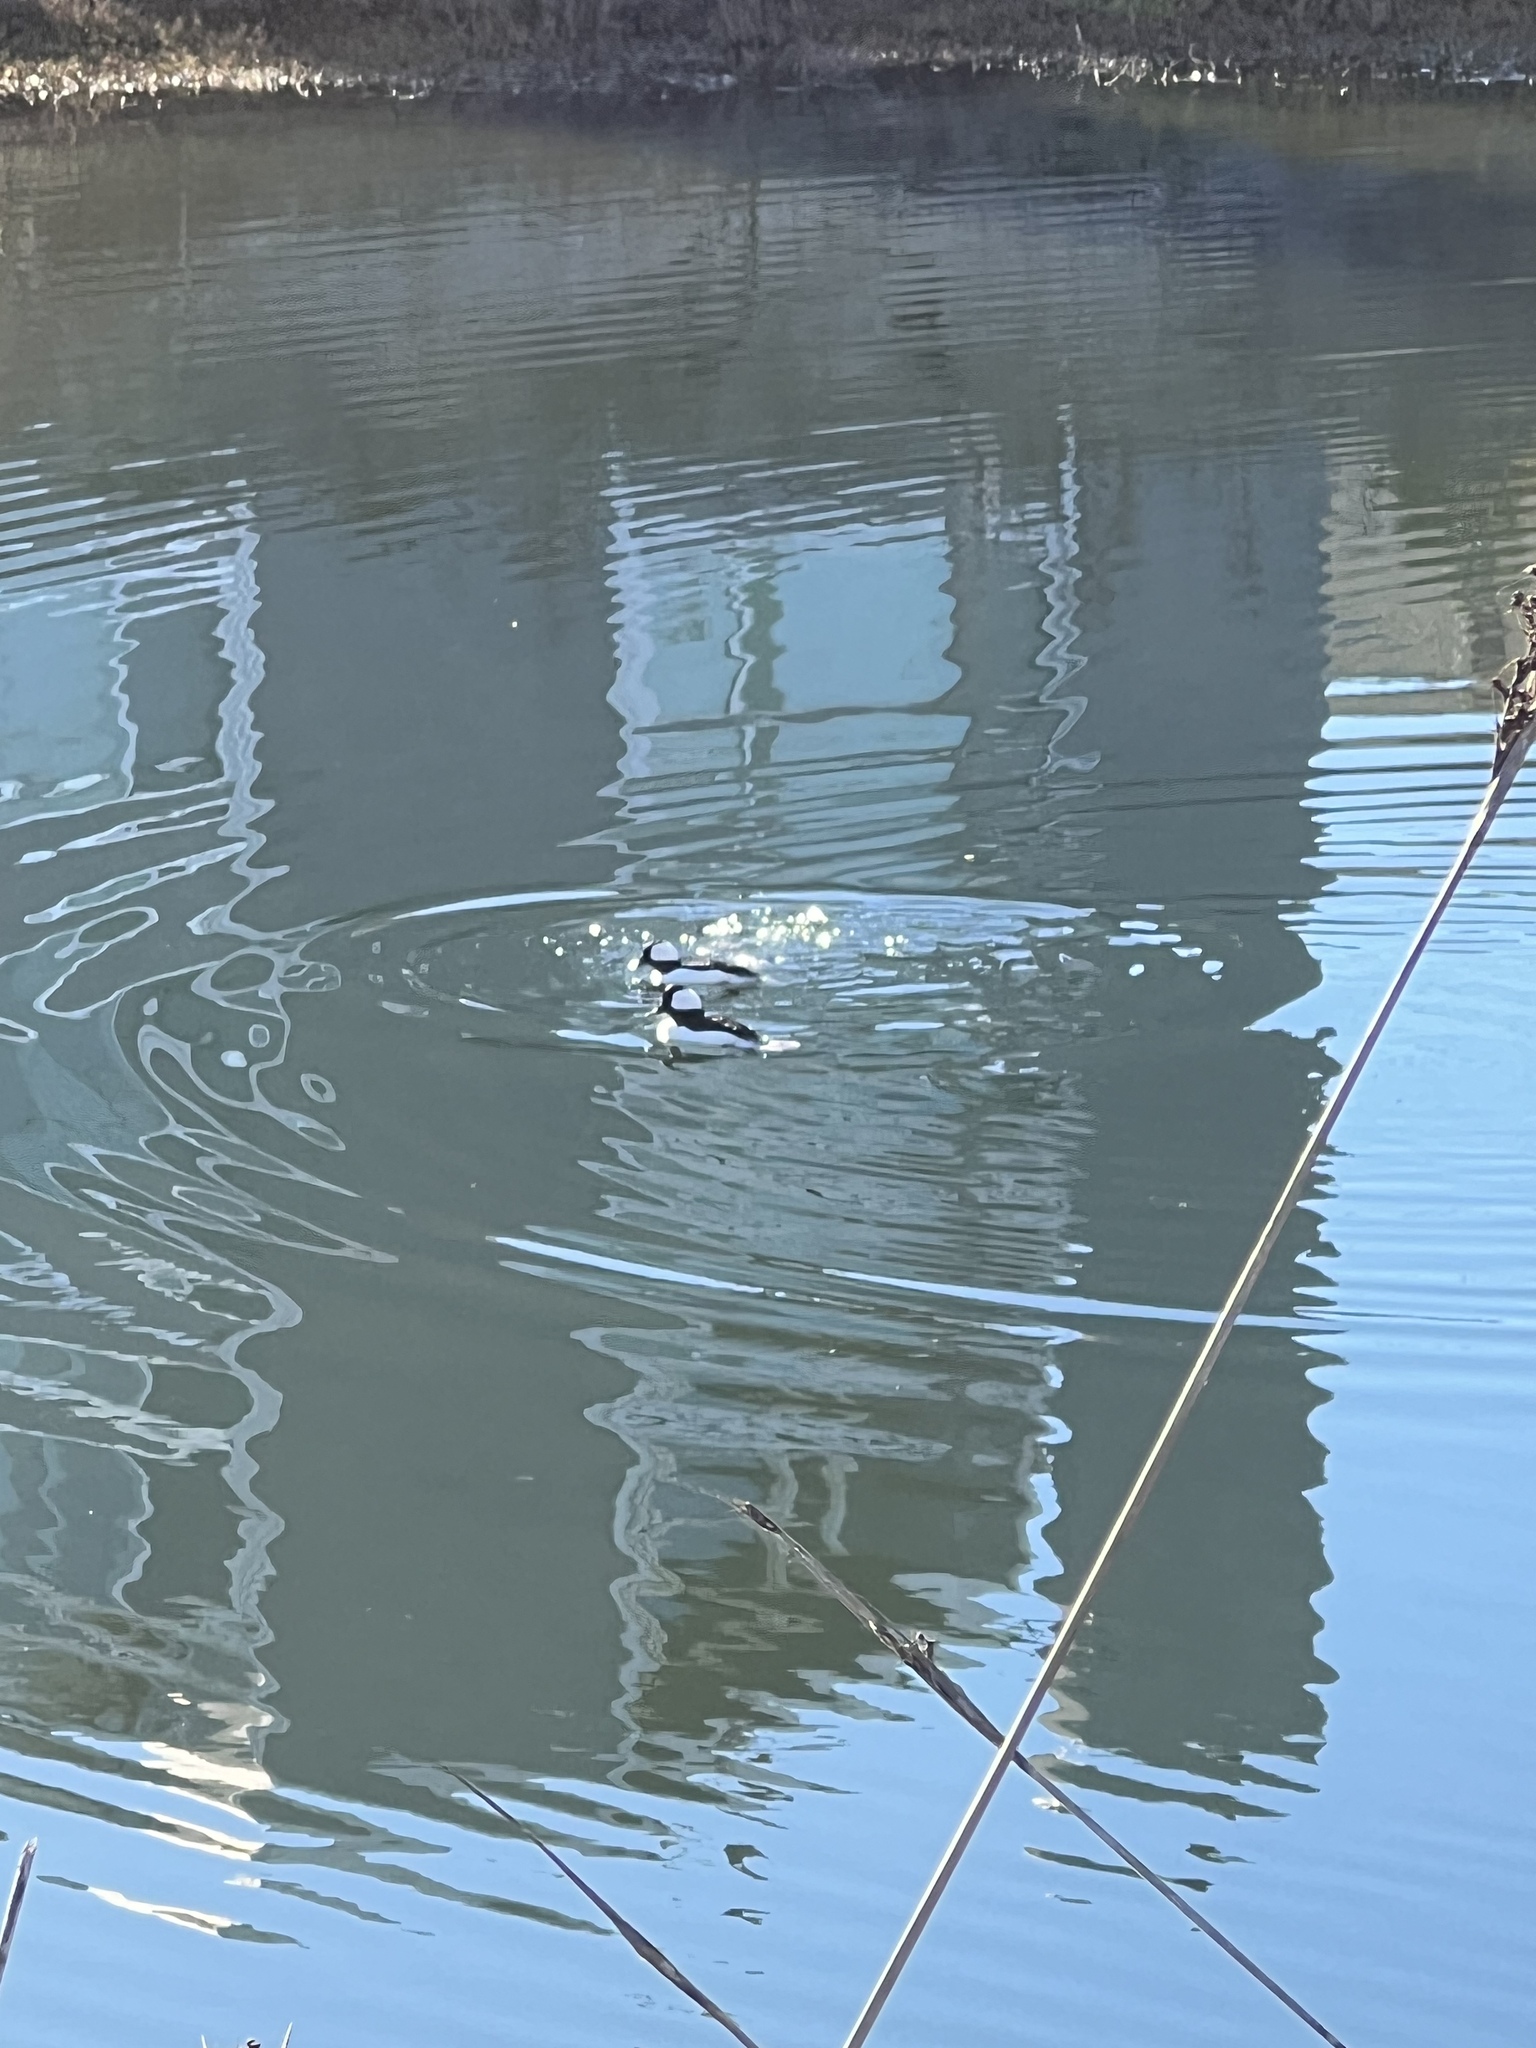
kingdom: Animalia
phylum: Chordata
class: Aves
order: Anseriformes
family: Anatidae
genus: Bucephala
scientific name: Bucephala albeola
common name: Bufflehead
